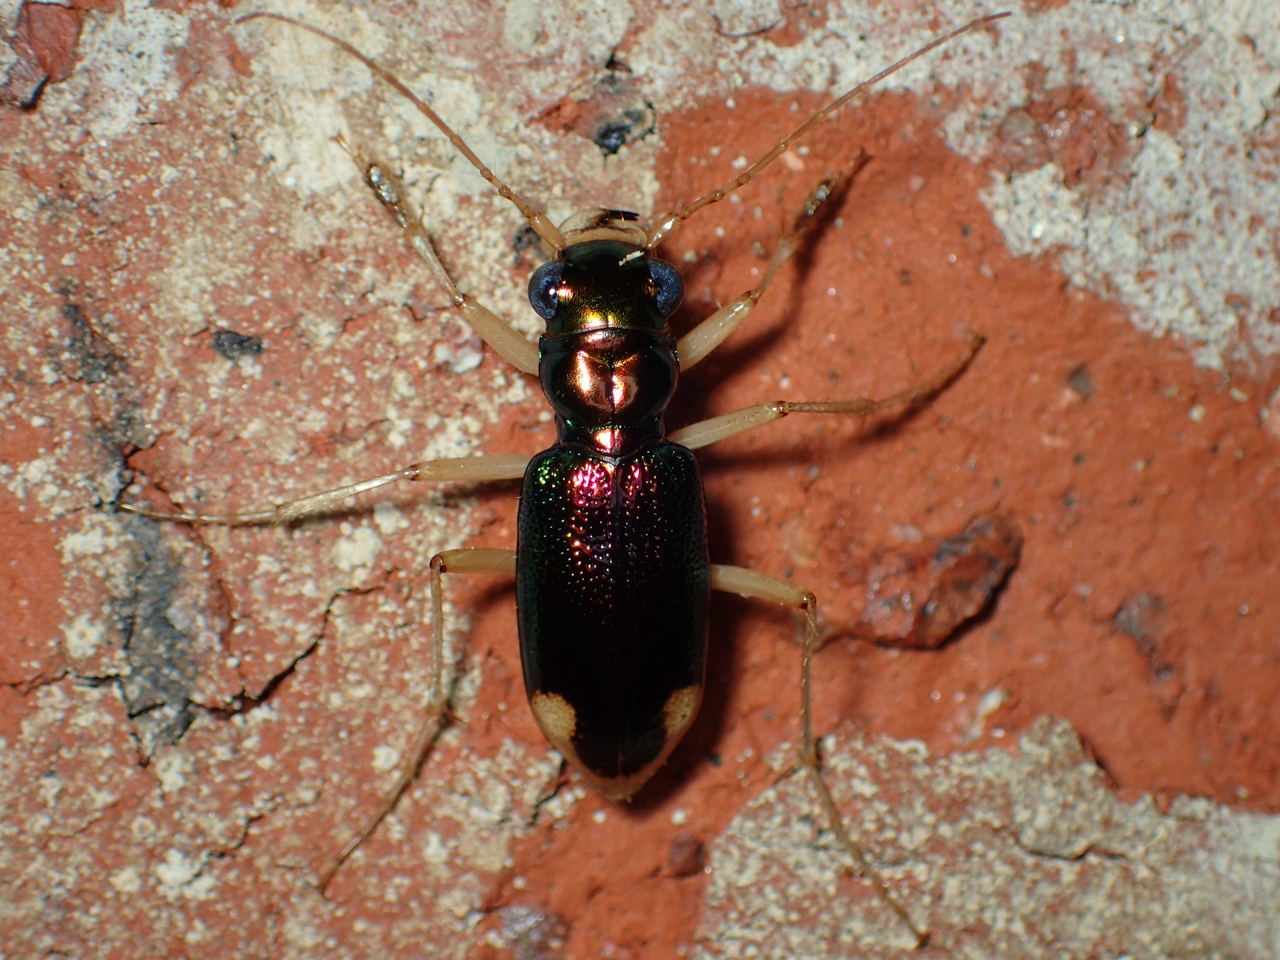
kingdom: Animalia
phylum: Arthropoda
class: Insecta
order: Coleoptera
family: Carabidae
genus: Tetracha
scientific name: Tetracha carolina
